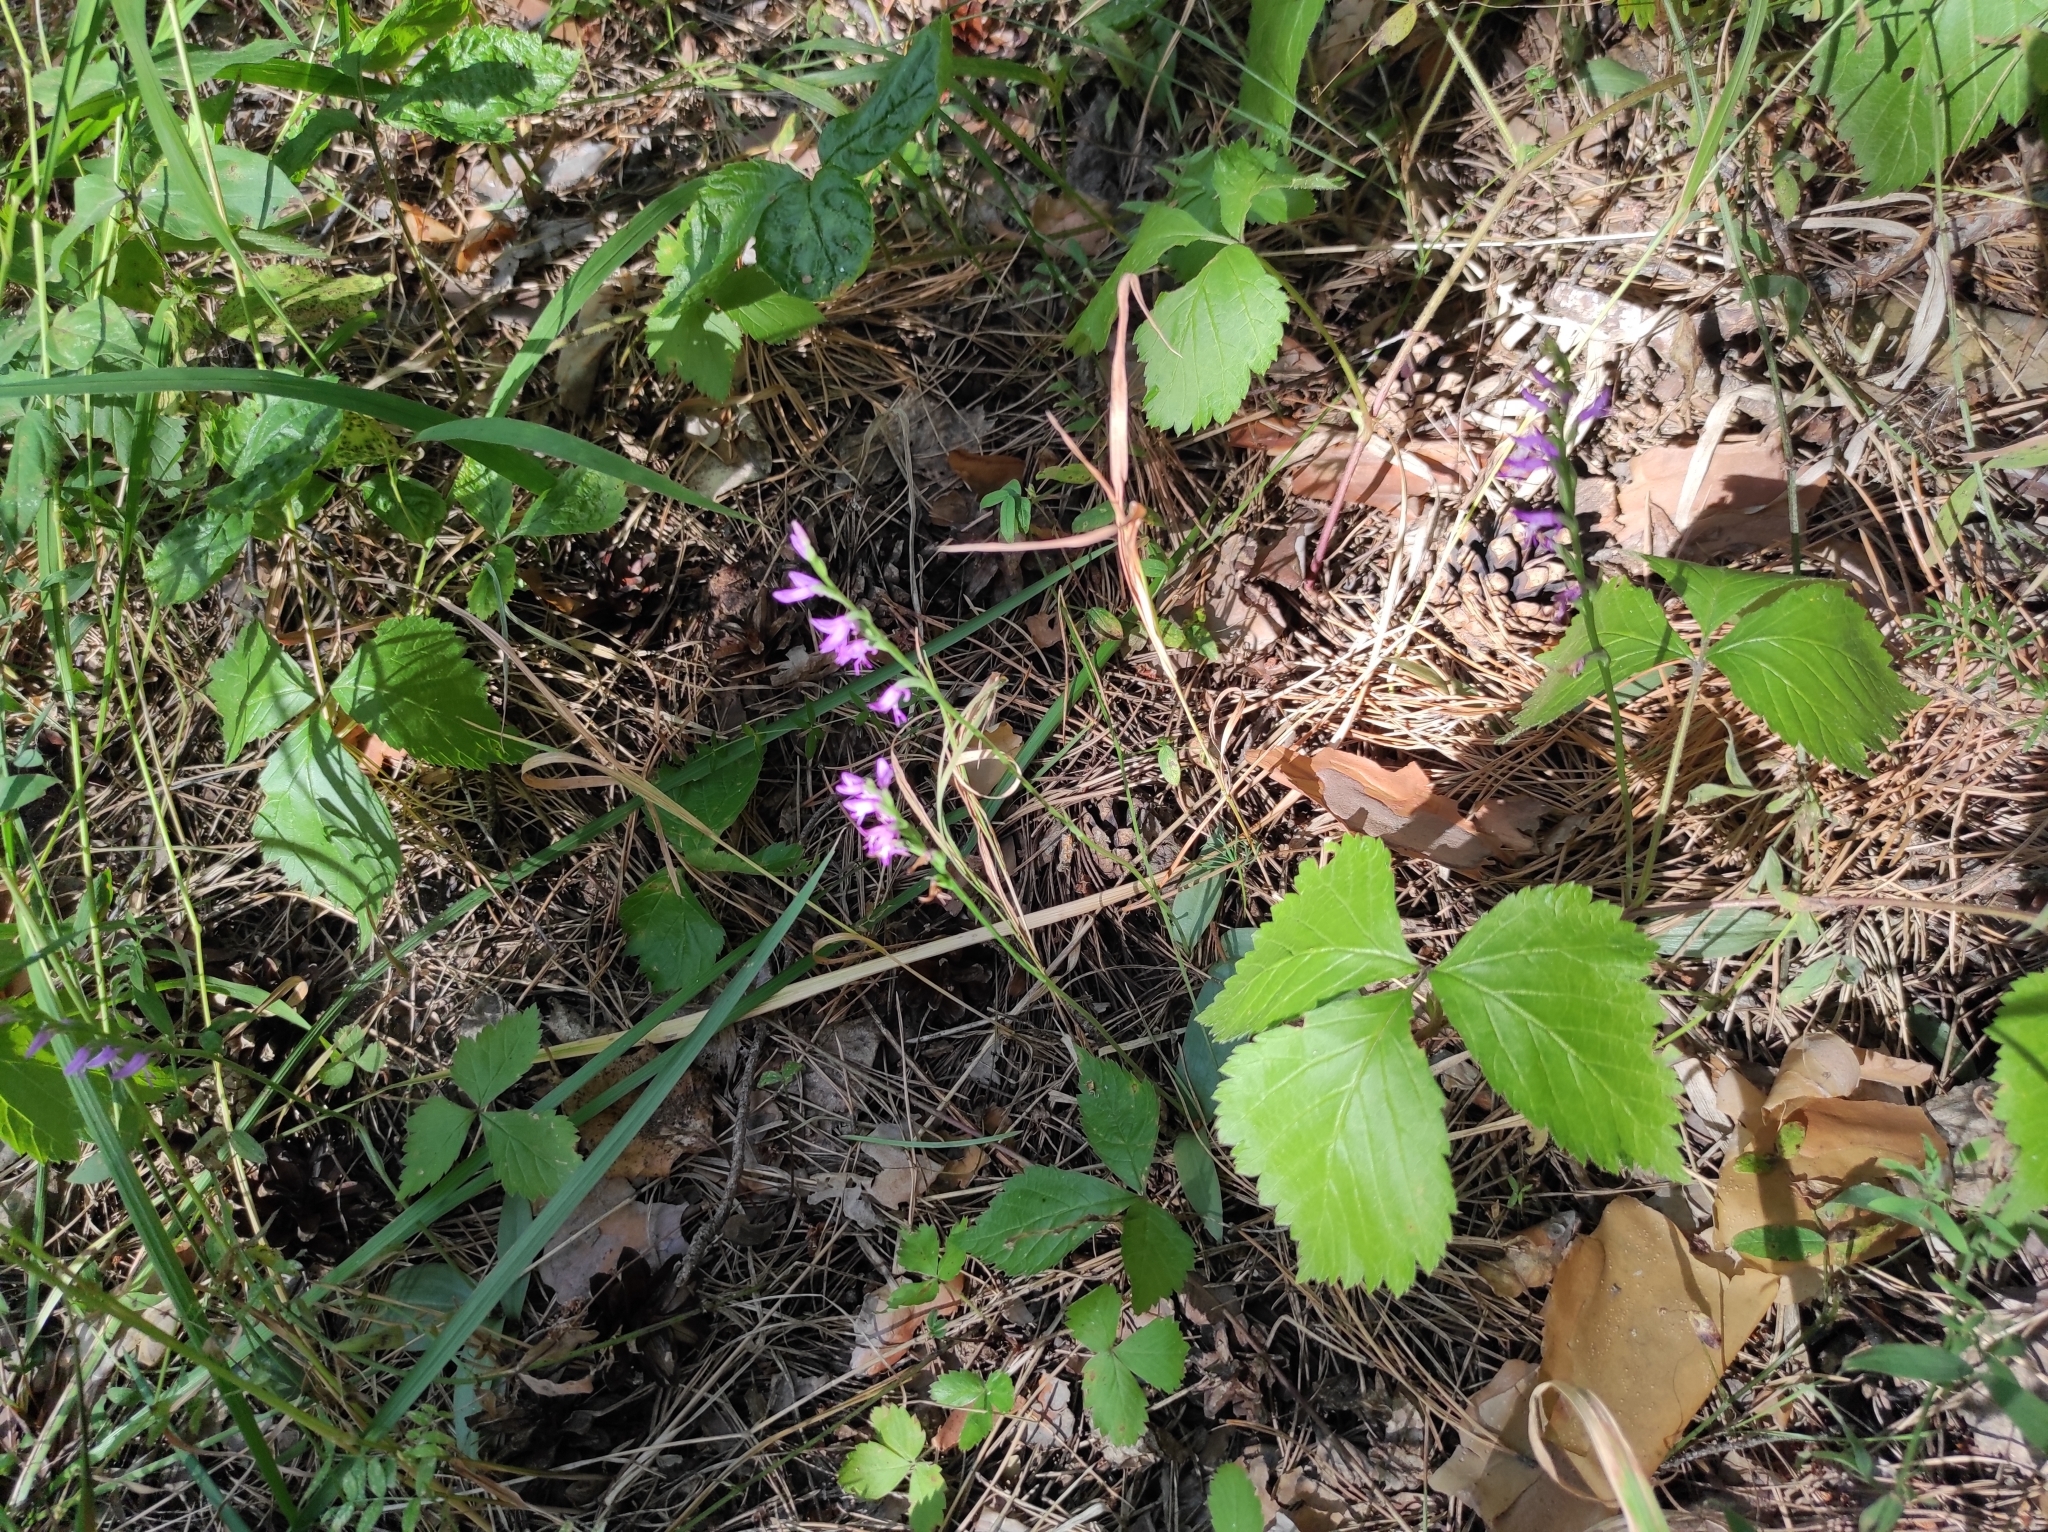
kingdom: Plantae
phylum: Tracheophyta
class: Liliopsida
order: Asparagales
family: Orchidaceae
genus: Hemipilia
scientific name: Hemipilia cucullata
